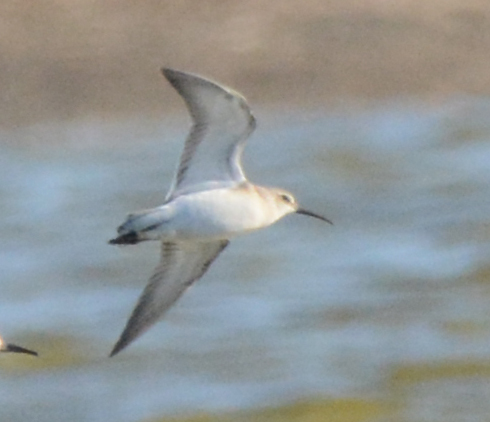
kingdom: Animalia
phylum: Chordata
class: Aves
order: Charadriiformes
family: Scolopacidae
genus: Calidris
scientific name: Calidris ferruginea
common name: Curlew sandpiper
